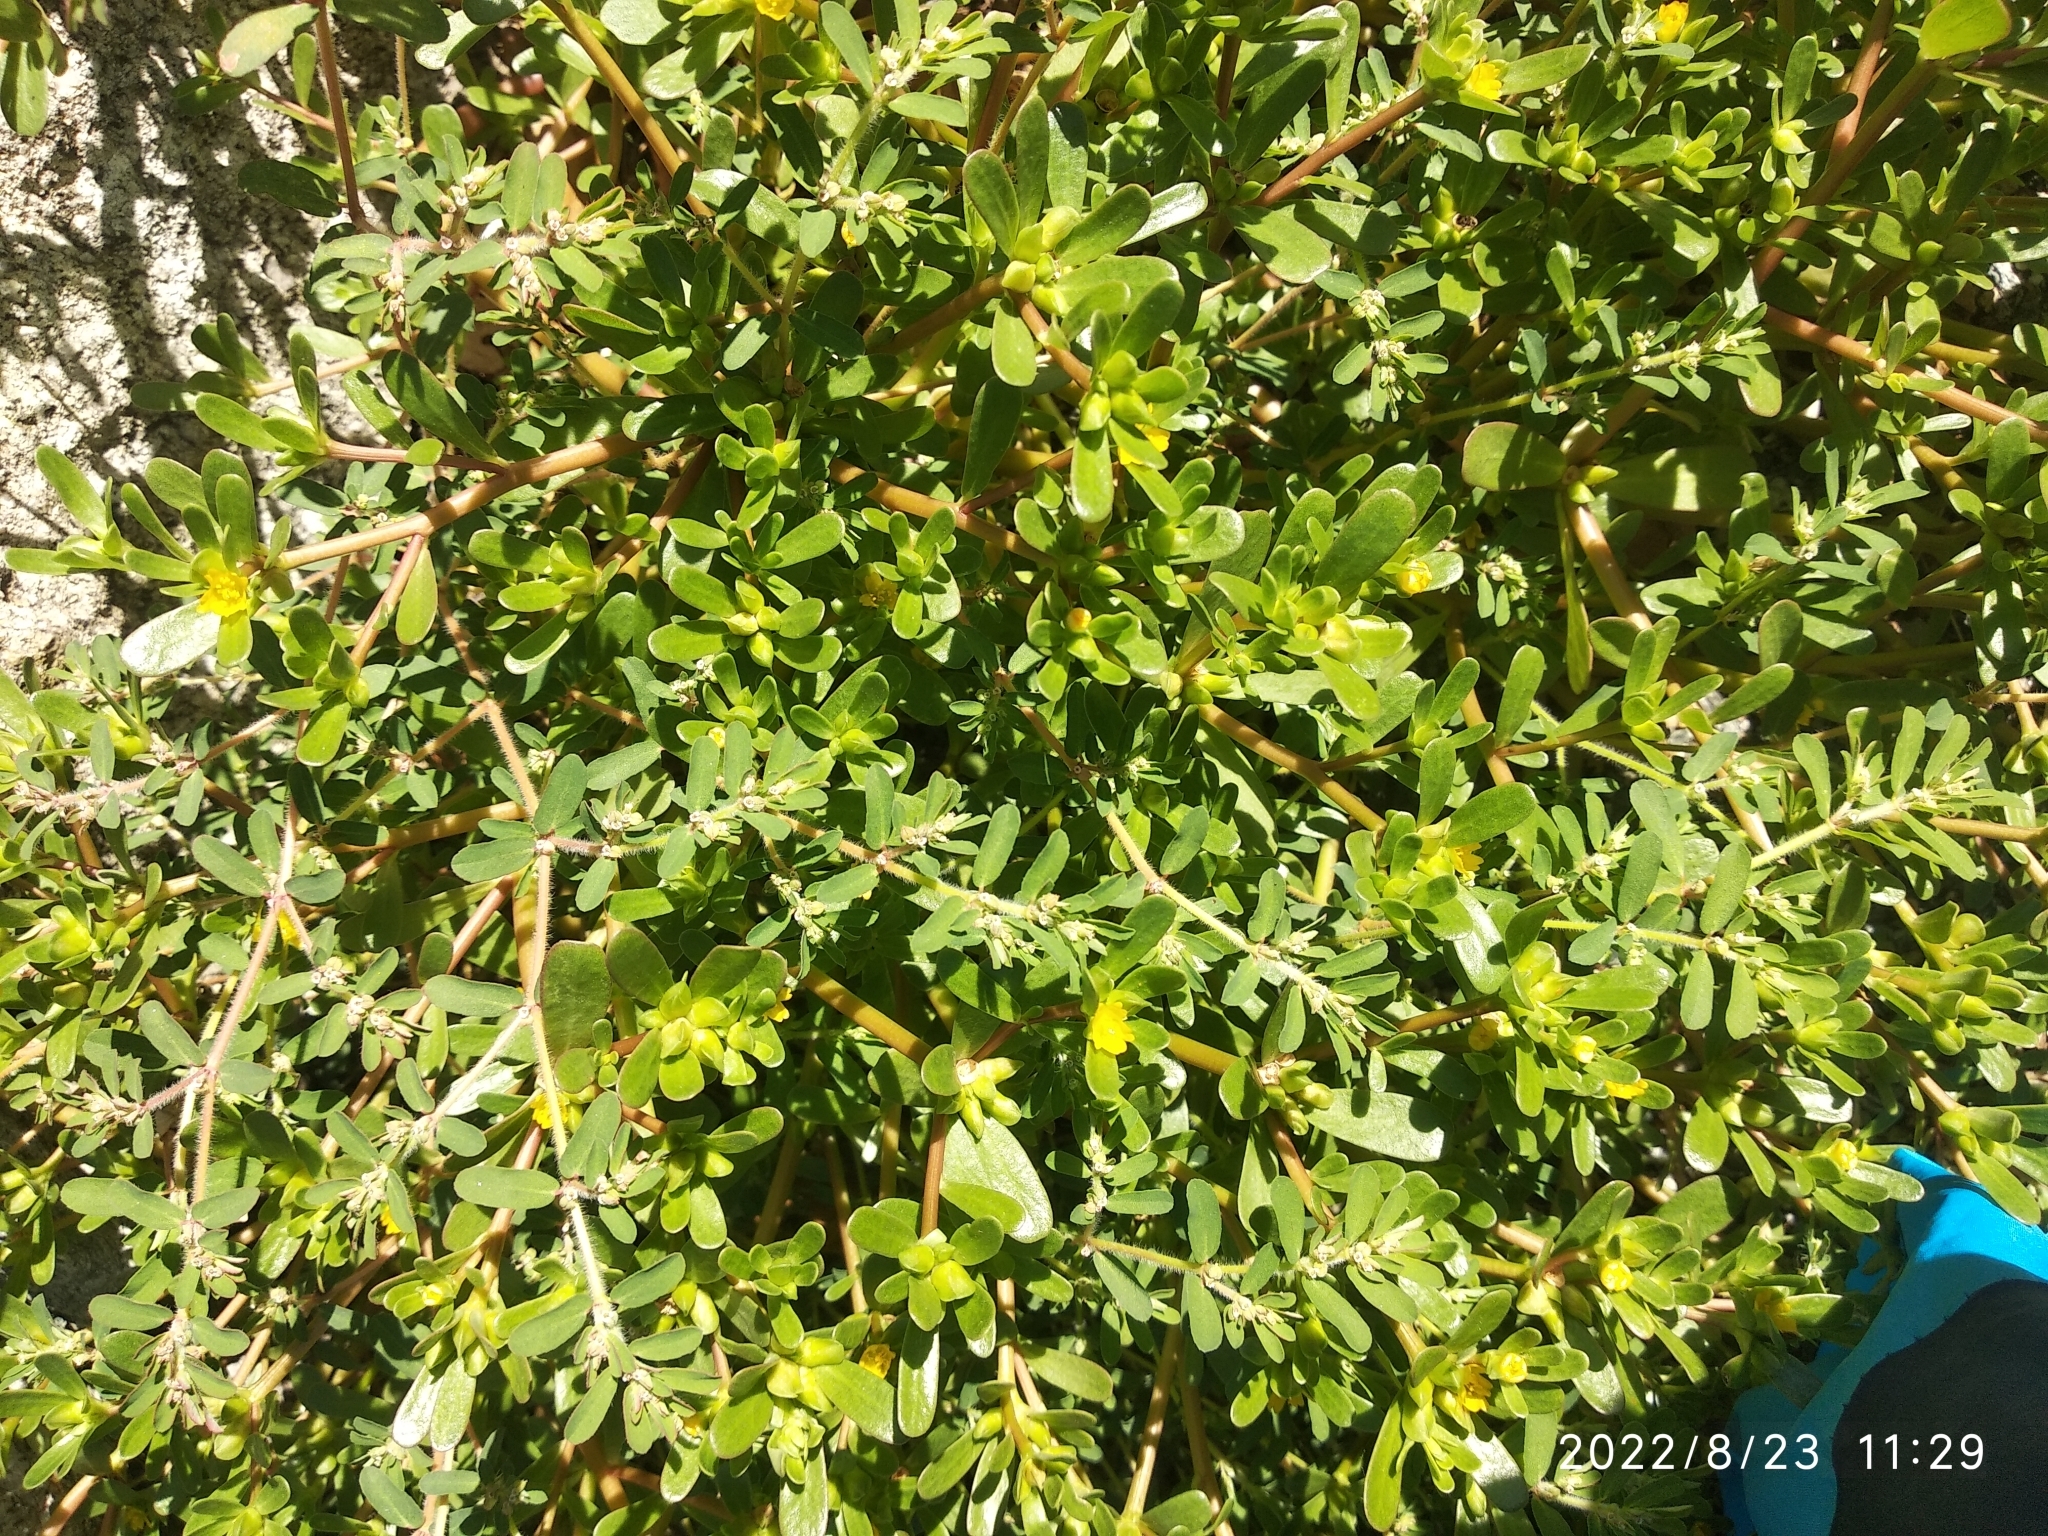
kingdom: Plantae
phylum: Tracheophyta
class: Magnoliopsida
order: Caryophyllales
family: Portulacaceae
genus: Portulaca
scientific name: Portulaca oleracea
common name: Common purslane
